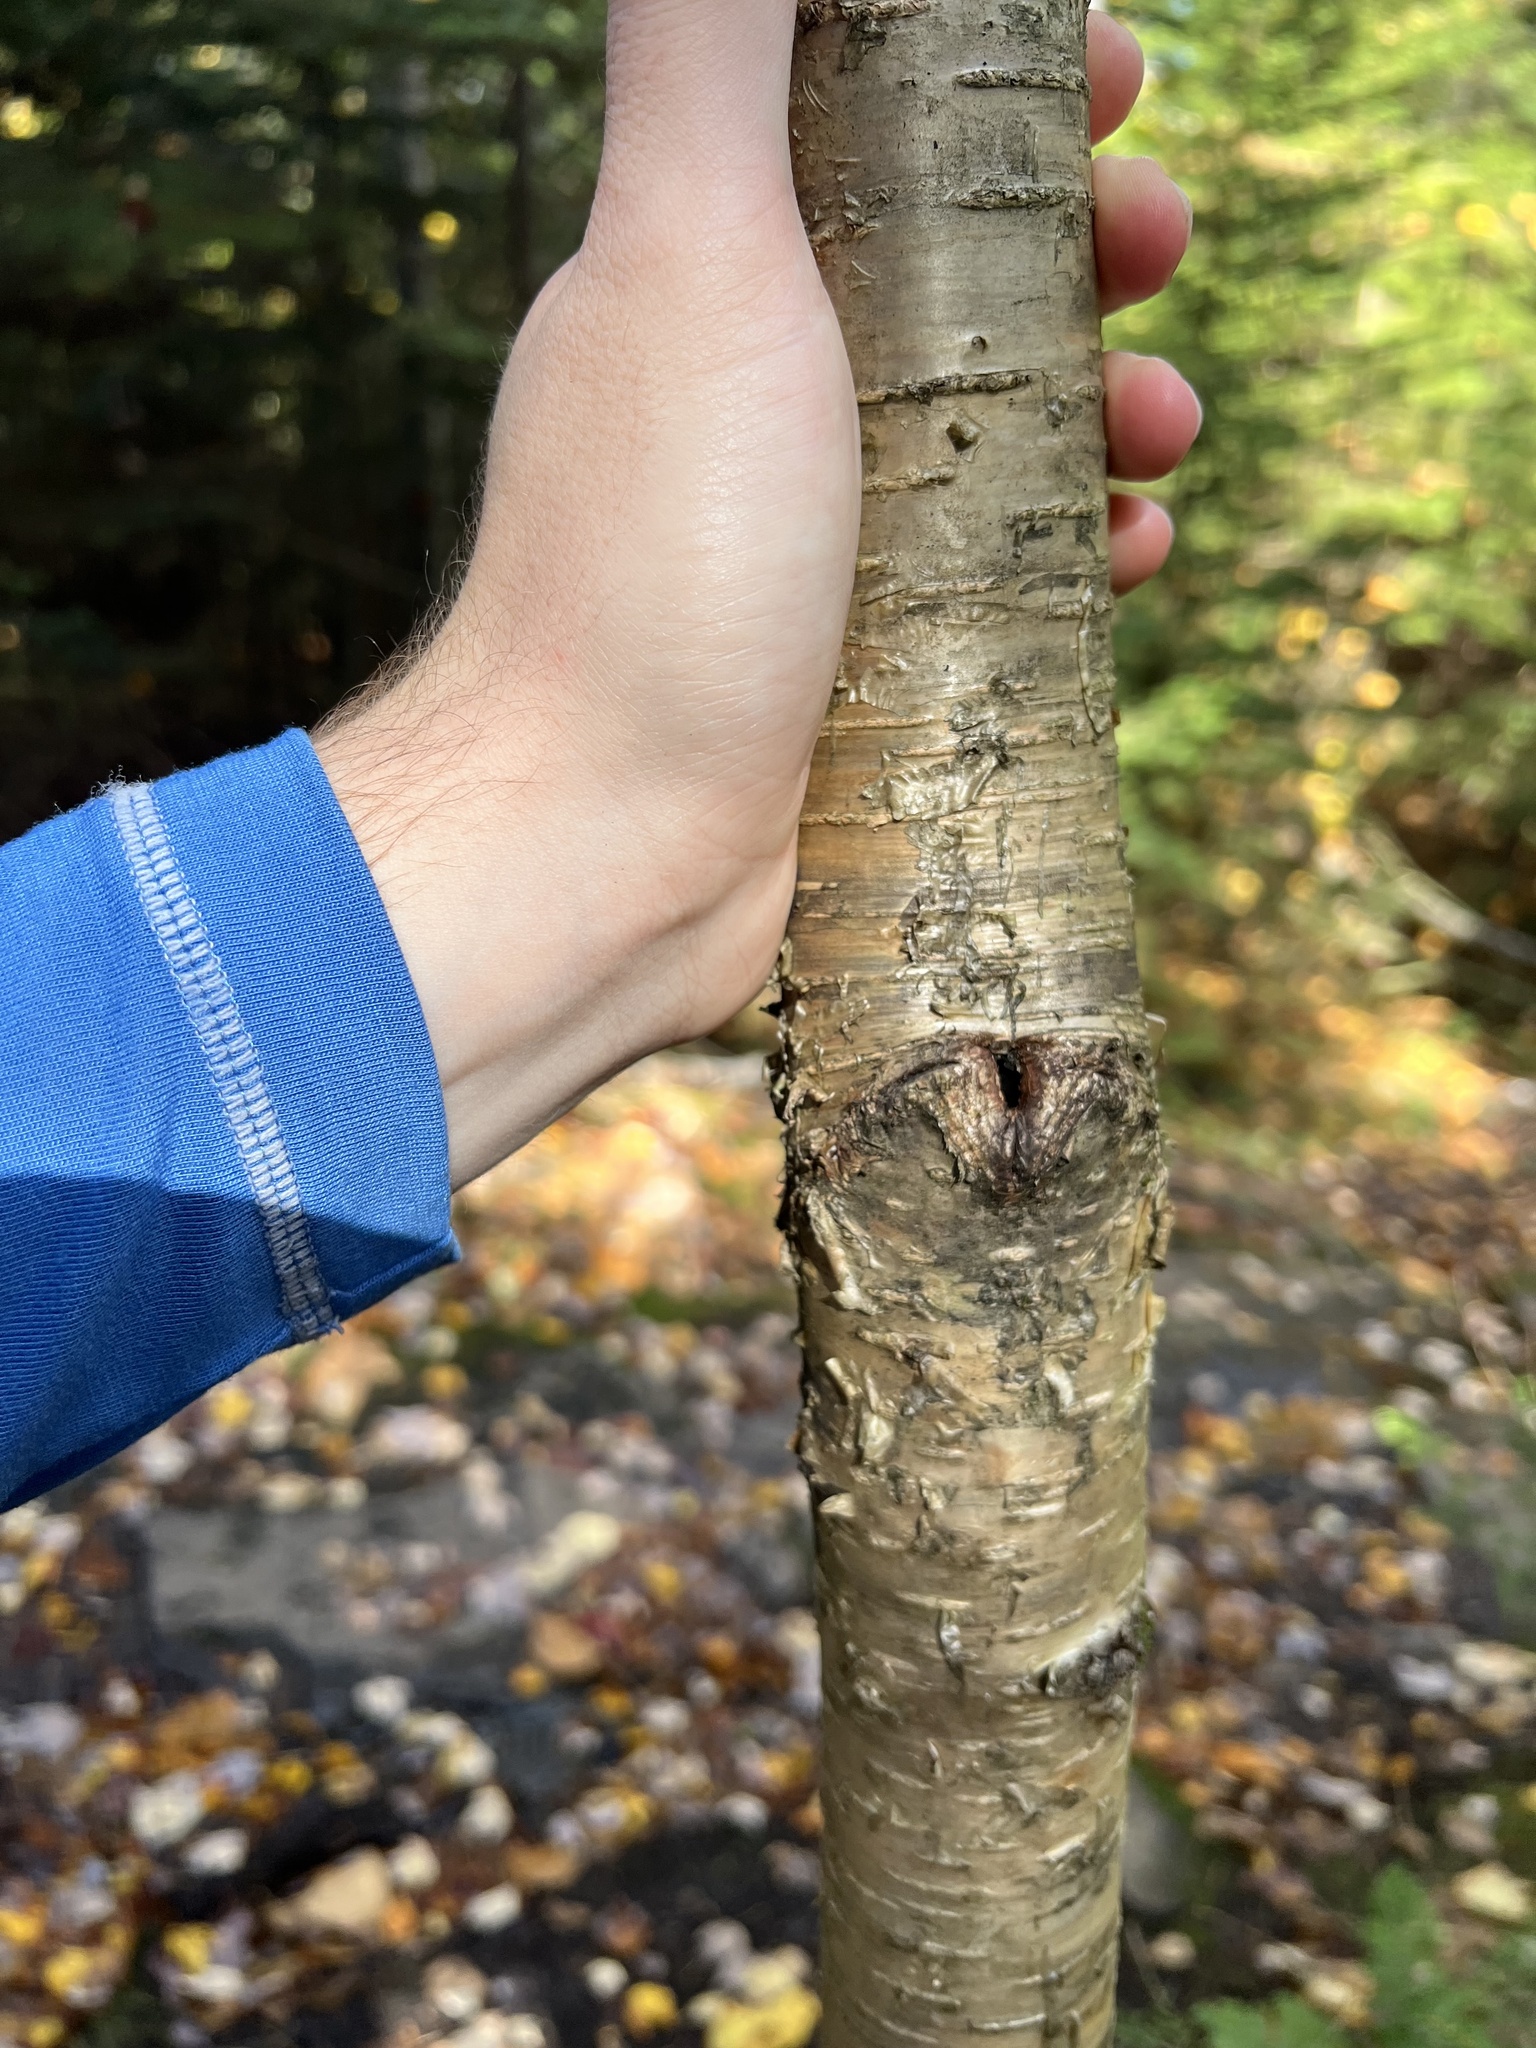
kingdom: Plantae
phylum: Tracheophyta
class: Magnoliopsida
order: Fagales
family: Betulaceae
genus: Betula
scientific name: Betula alleghaniensis
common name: Yellow birch
